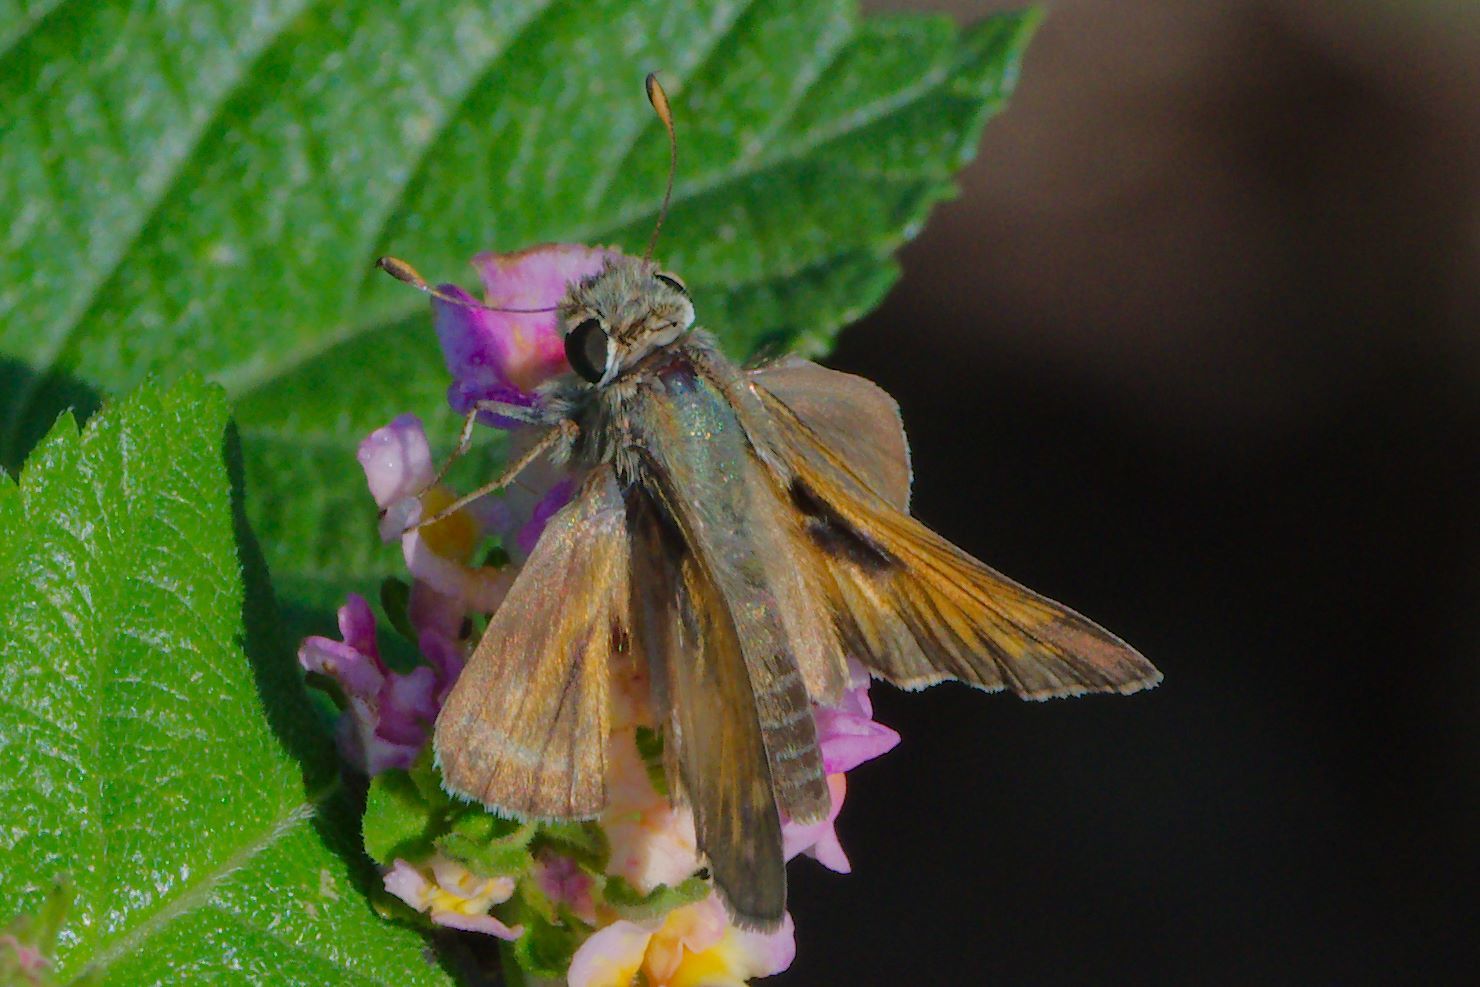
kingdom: Animalia
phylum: Arthropoda
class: Insecta
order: Lepidoptera
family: Hesperiidae
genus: Atalopedes
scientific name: Atalopedes
